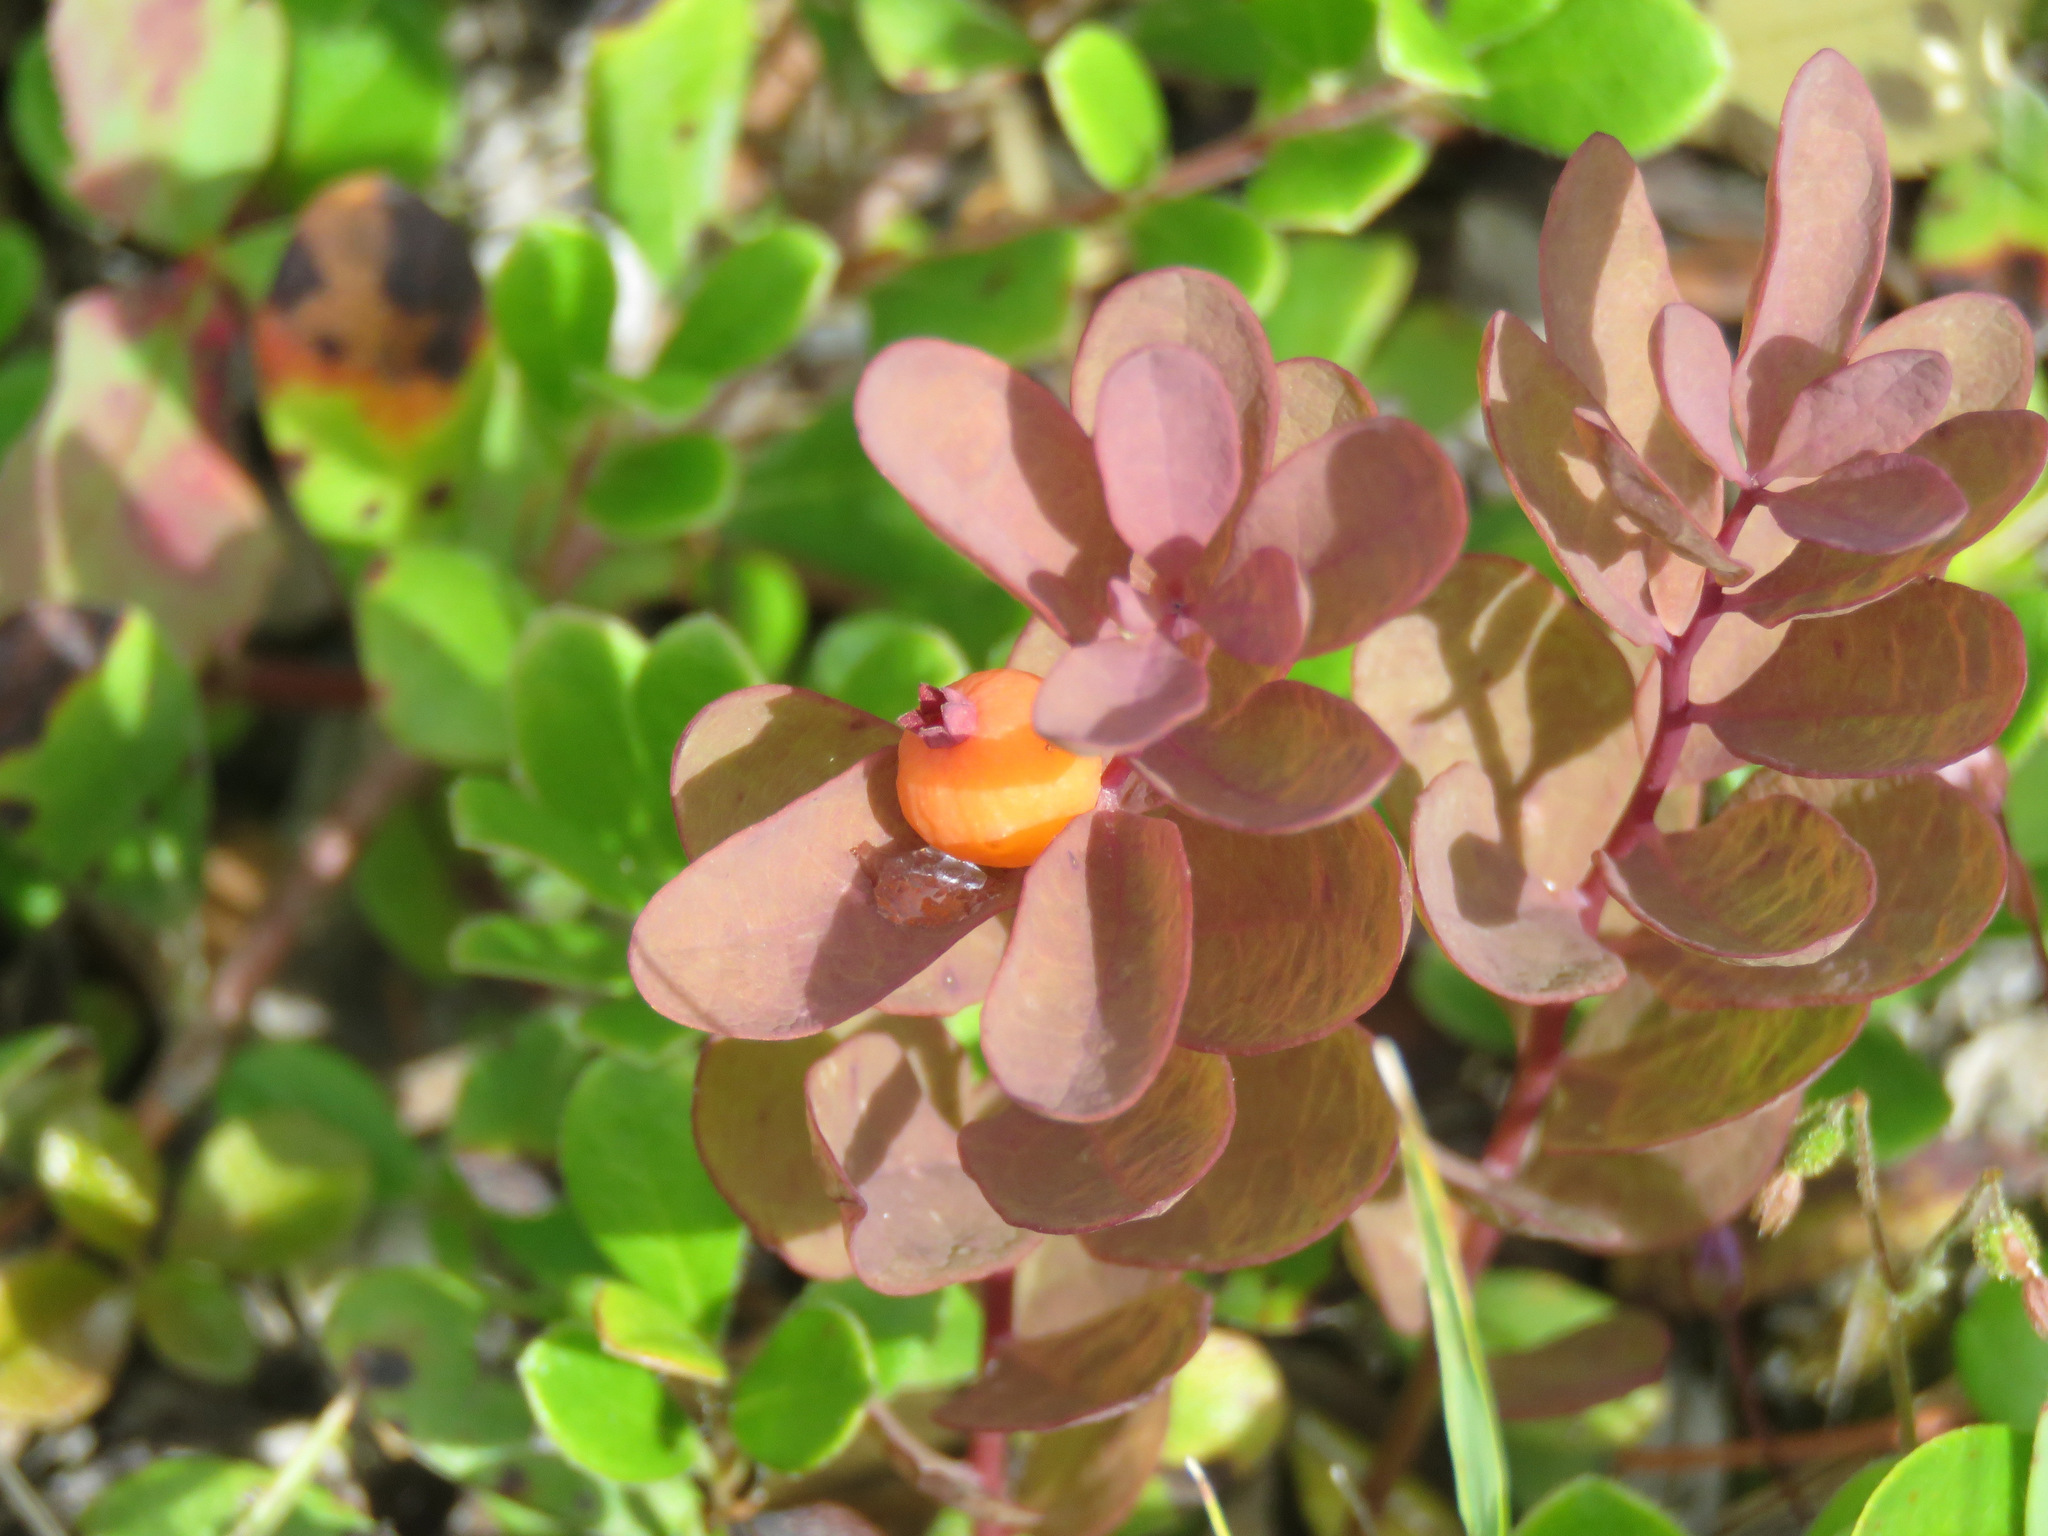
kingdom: Plantae
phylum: Tracheophyta
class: Magnoliopsida
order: Santalales
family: Comandraceae
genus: Geocaulon
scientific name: Geocaulon lividum
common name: Earthberry
